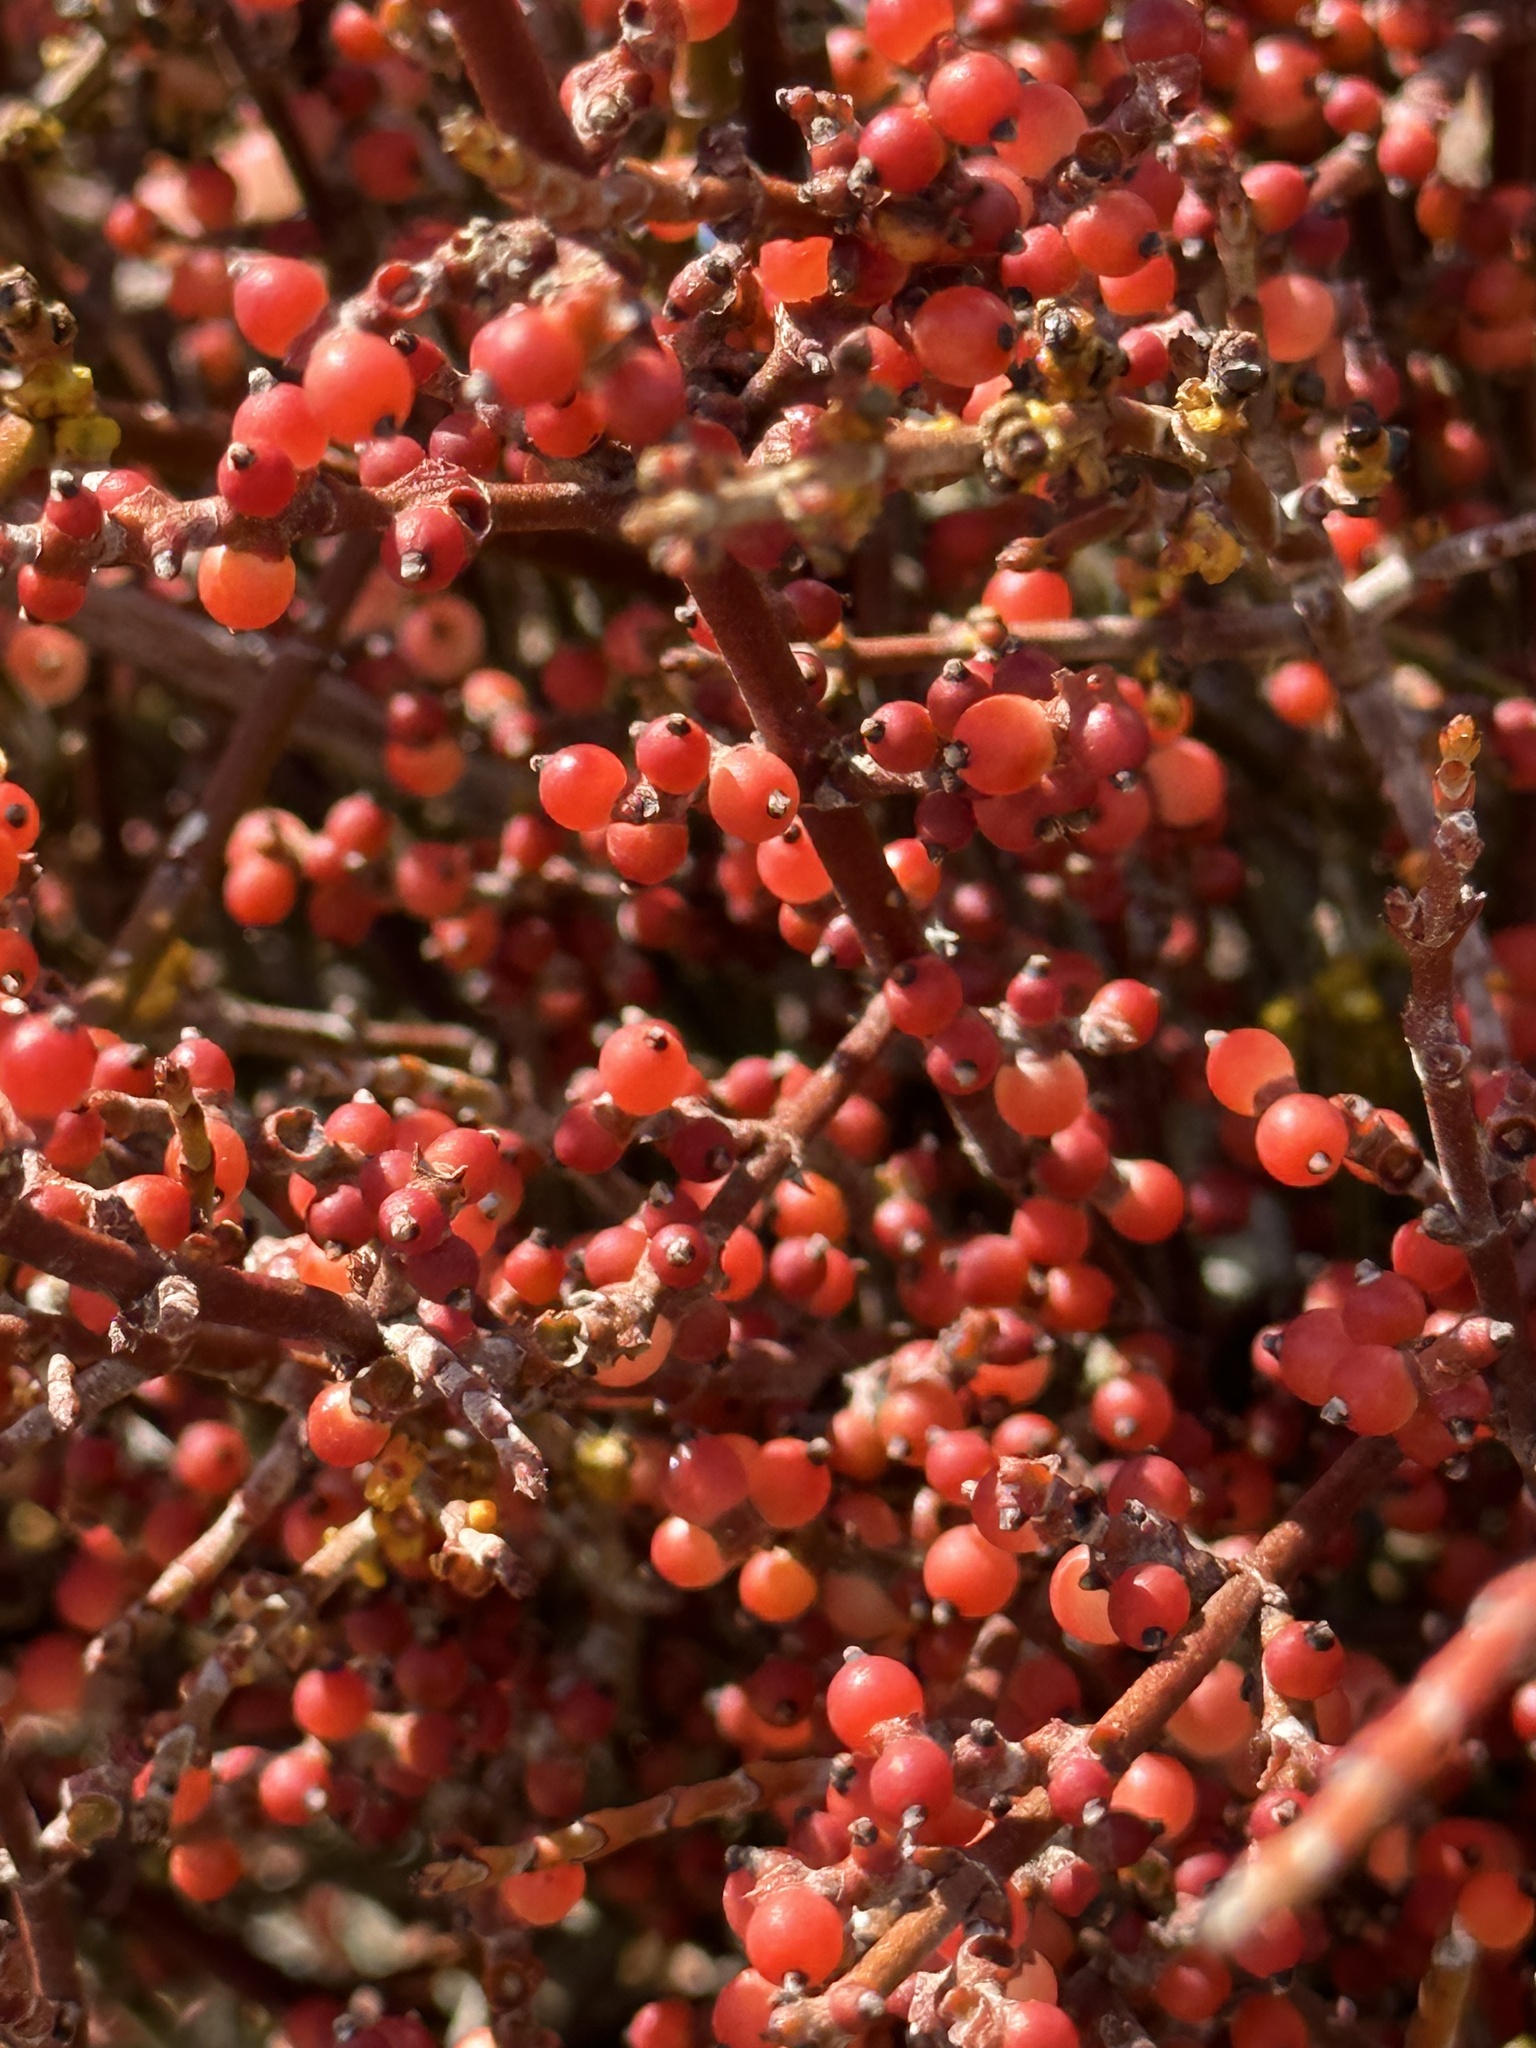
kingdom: Plantae
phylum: Tracheophyta
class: Magnoliopsida
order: Santalales
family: Viscaceae
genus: Phoradendron
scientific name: Phoradendron californicum
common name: Acacia mistletoe
